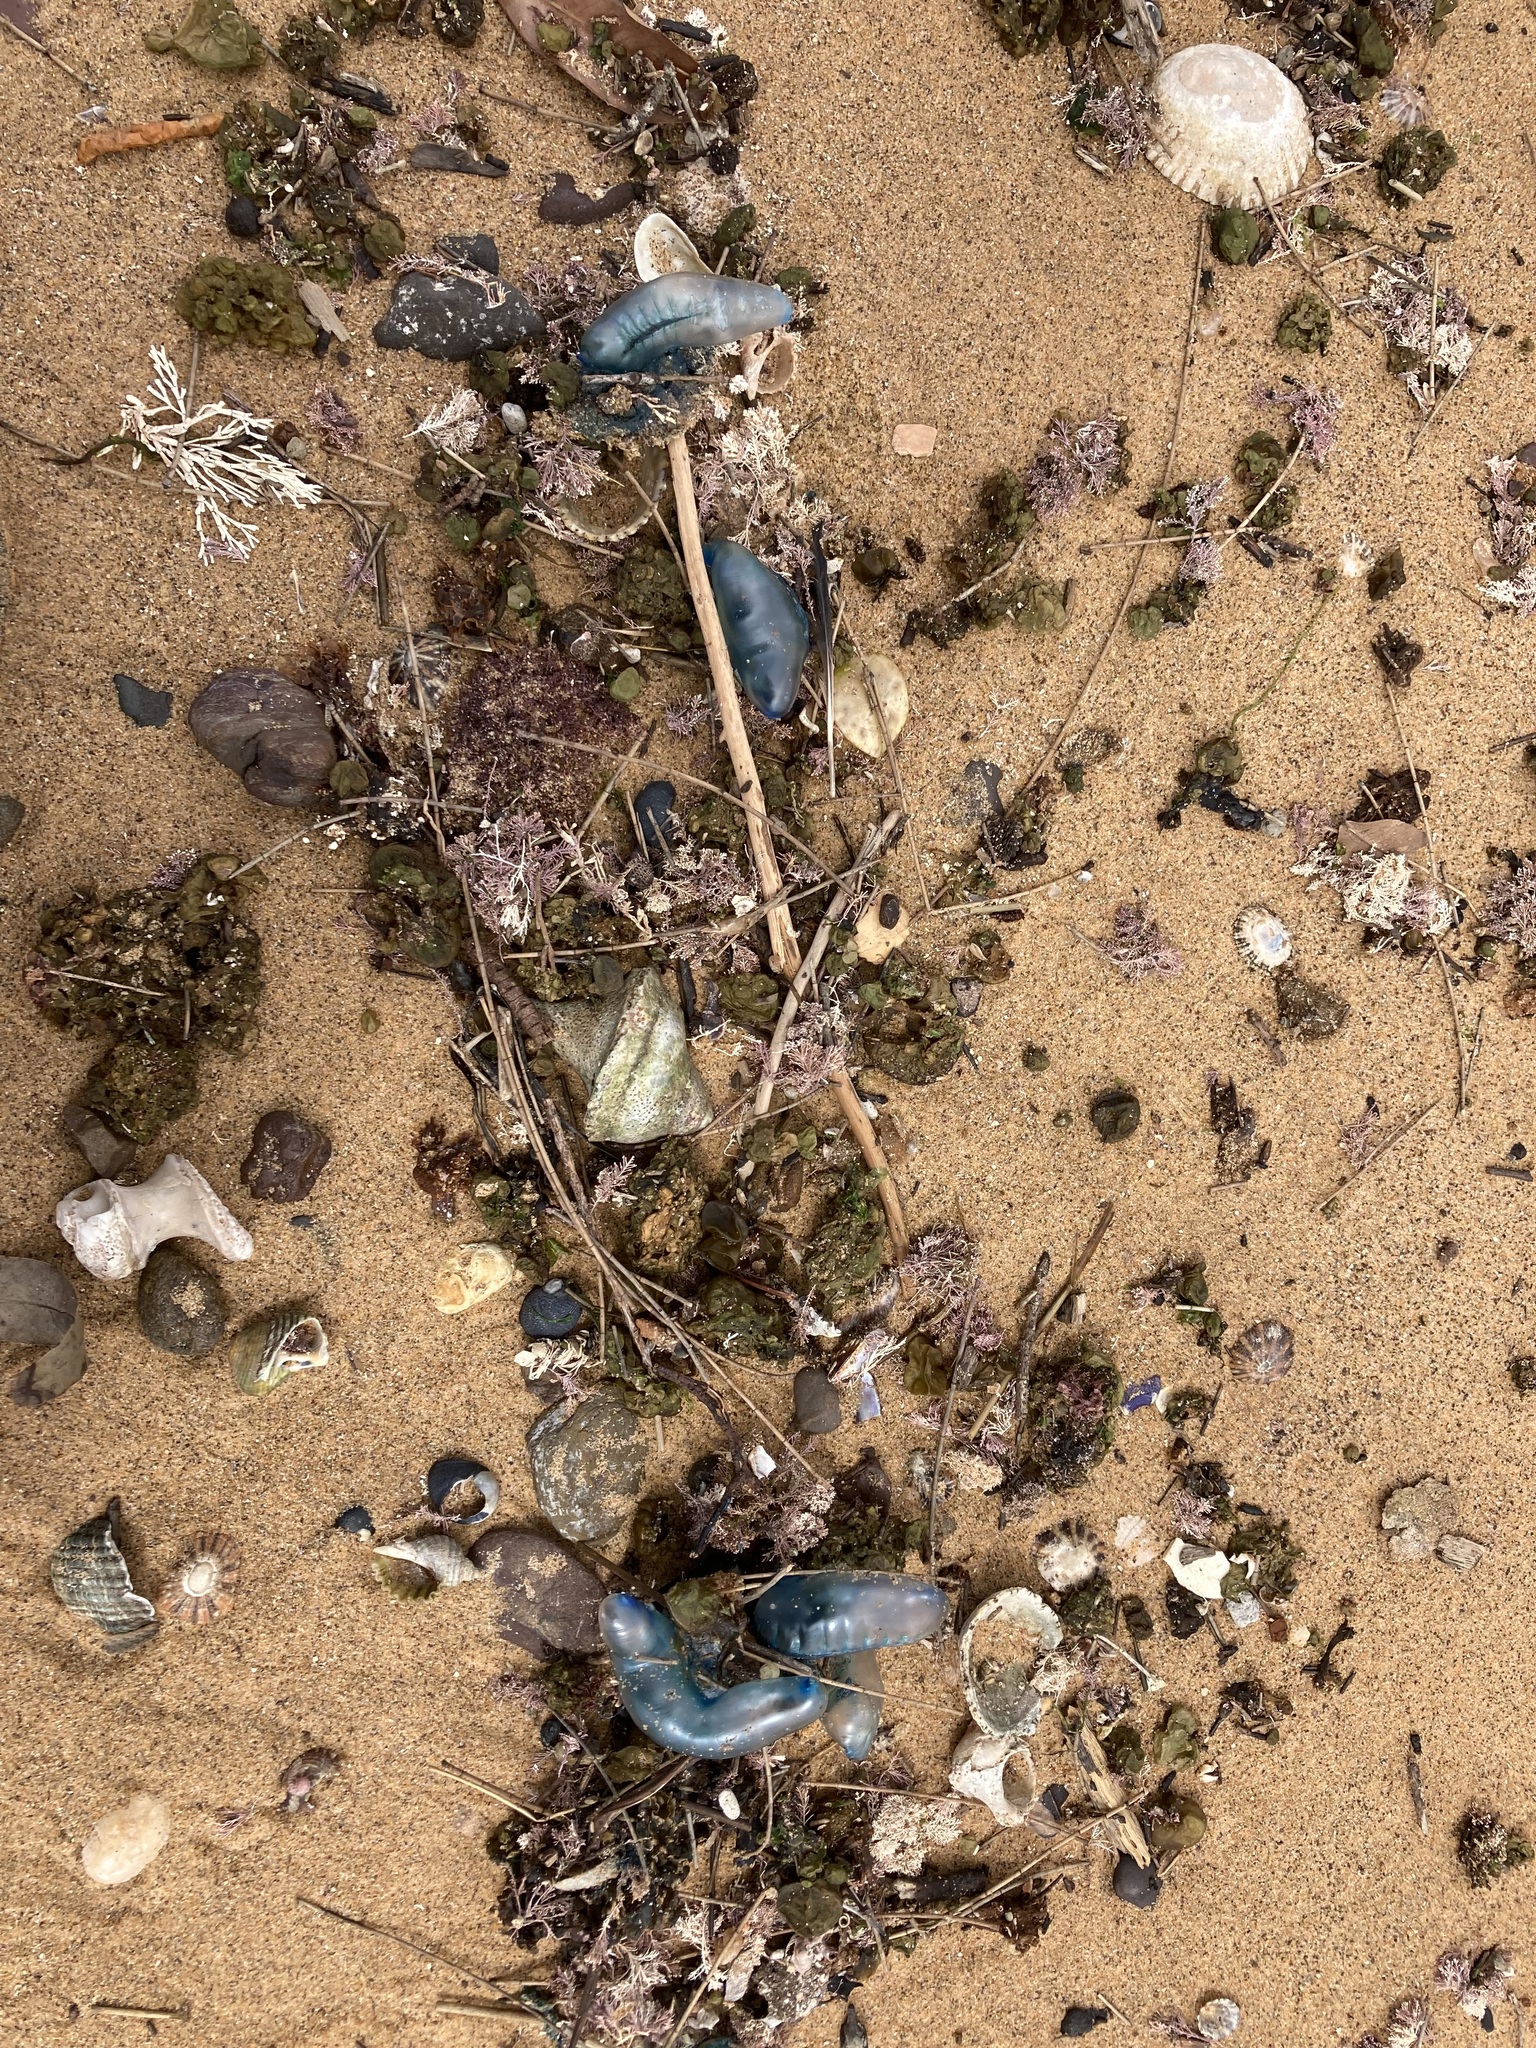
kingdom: Animalia
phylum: Cnidaria
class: Hydrozoa
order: Siphonophorae
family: Physaliidae
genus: Physalia
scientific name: Physalia physalis
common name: Portuguese man-of-war
